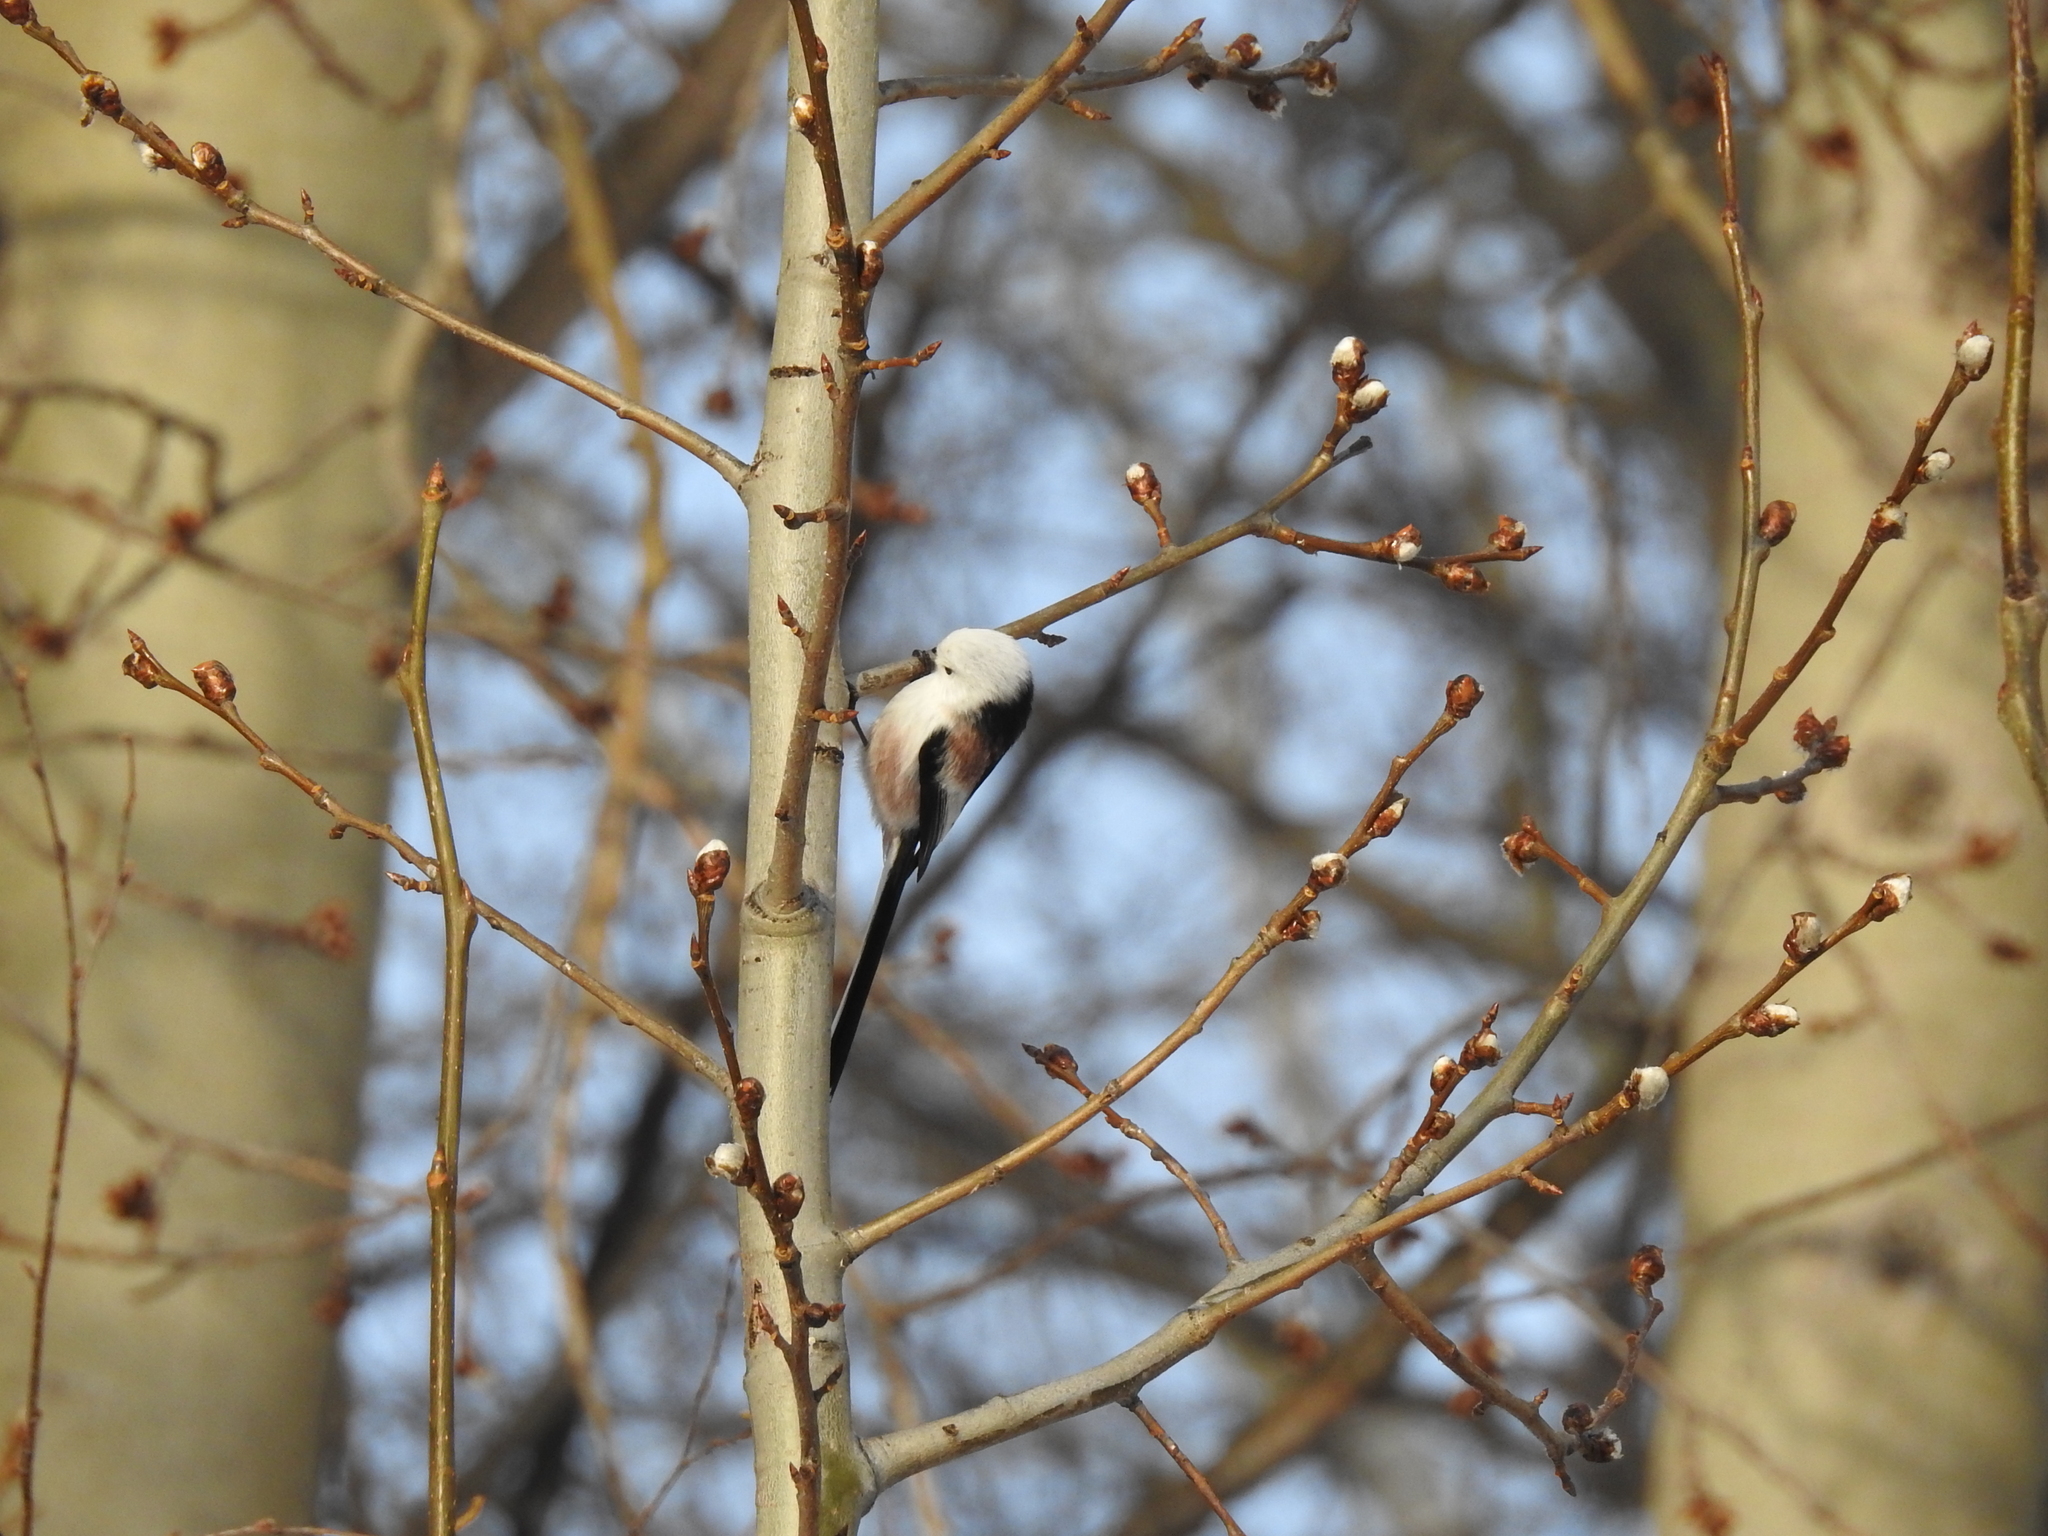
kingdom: Animalia
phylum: Chordata
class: Aves
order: Passeriformes
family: Aegithalidae
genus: Aegithalos
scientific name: Aegithalos caudatus
